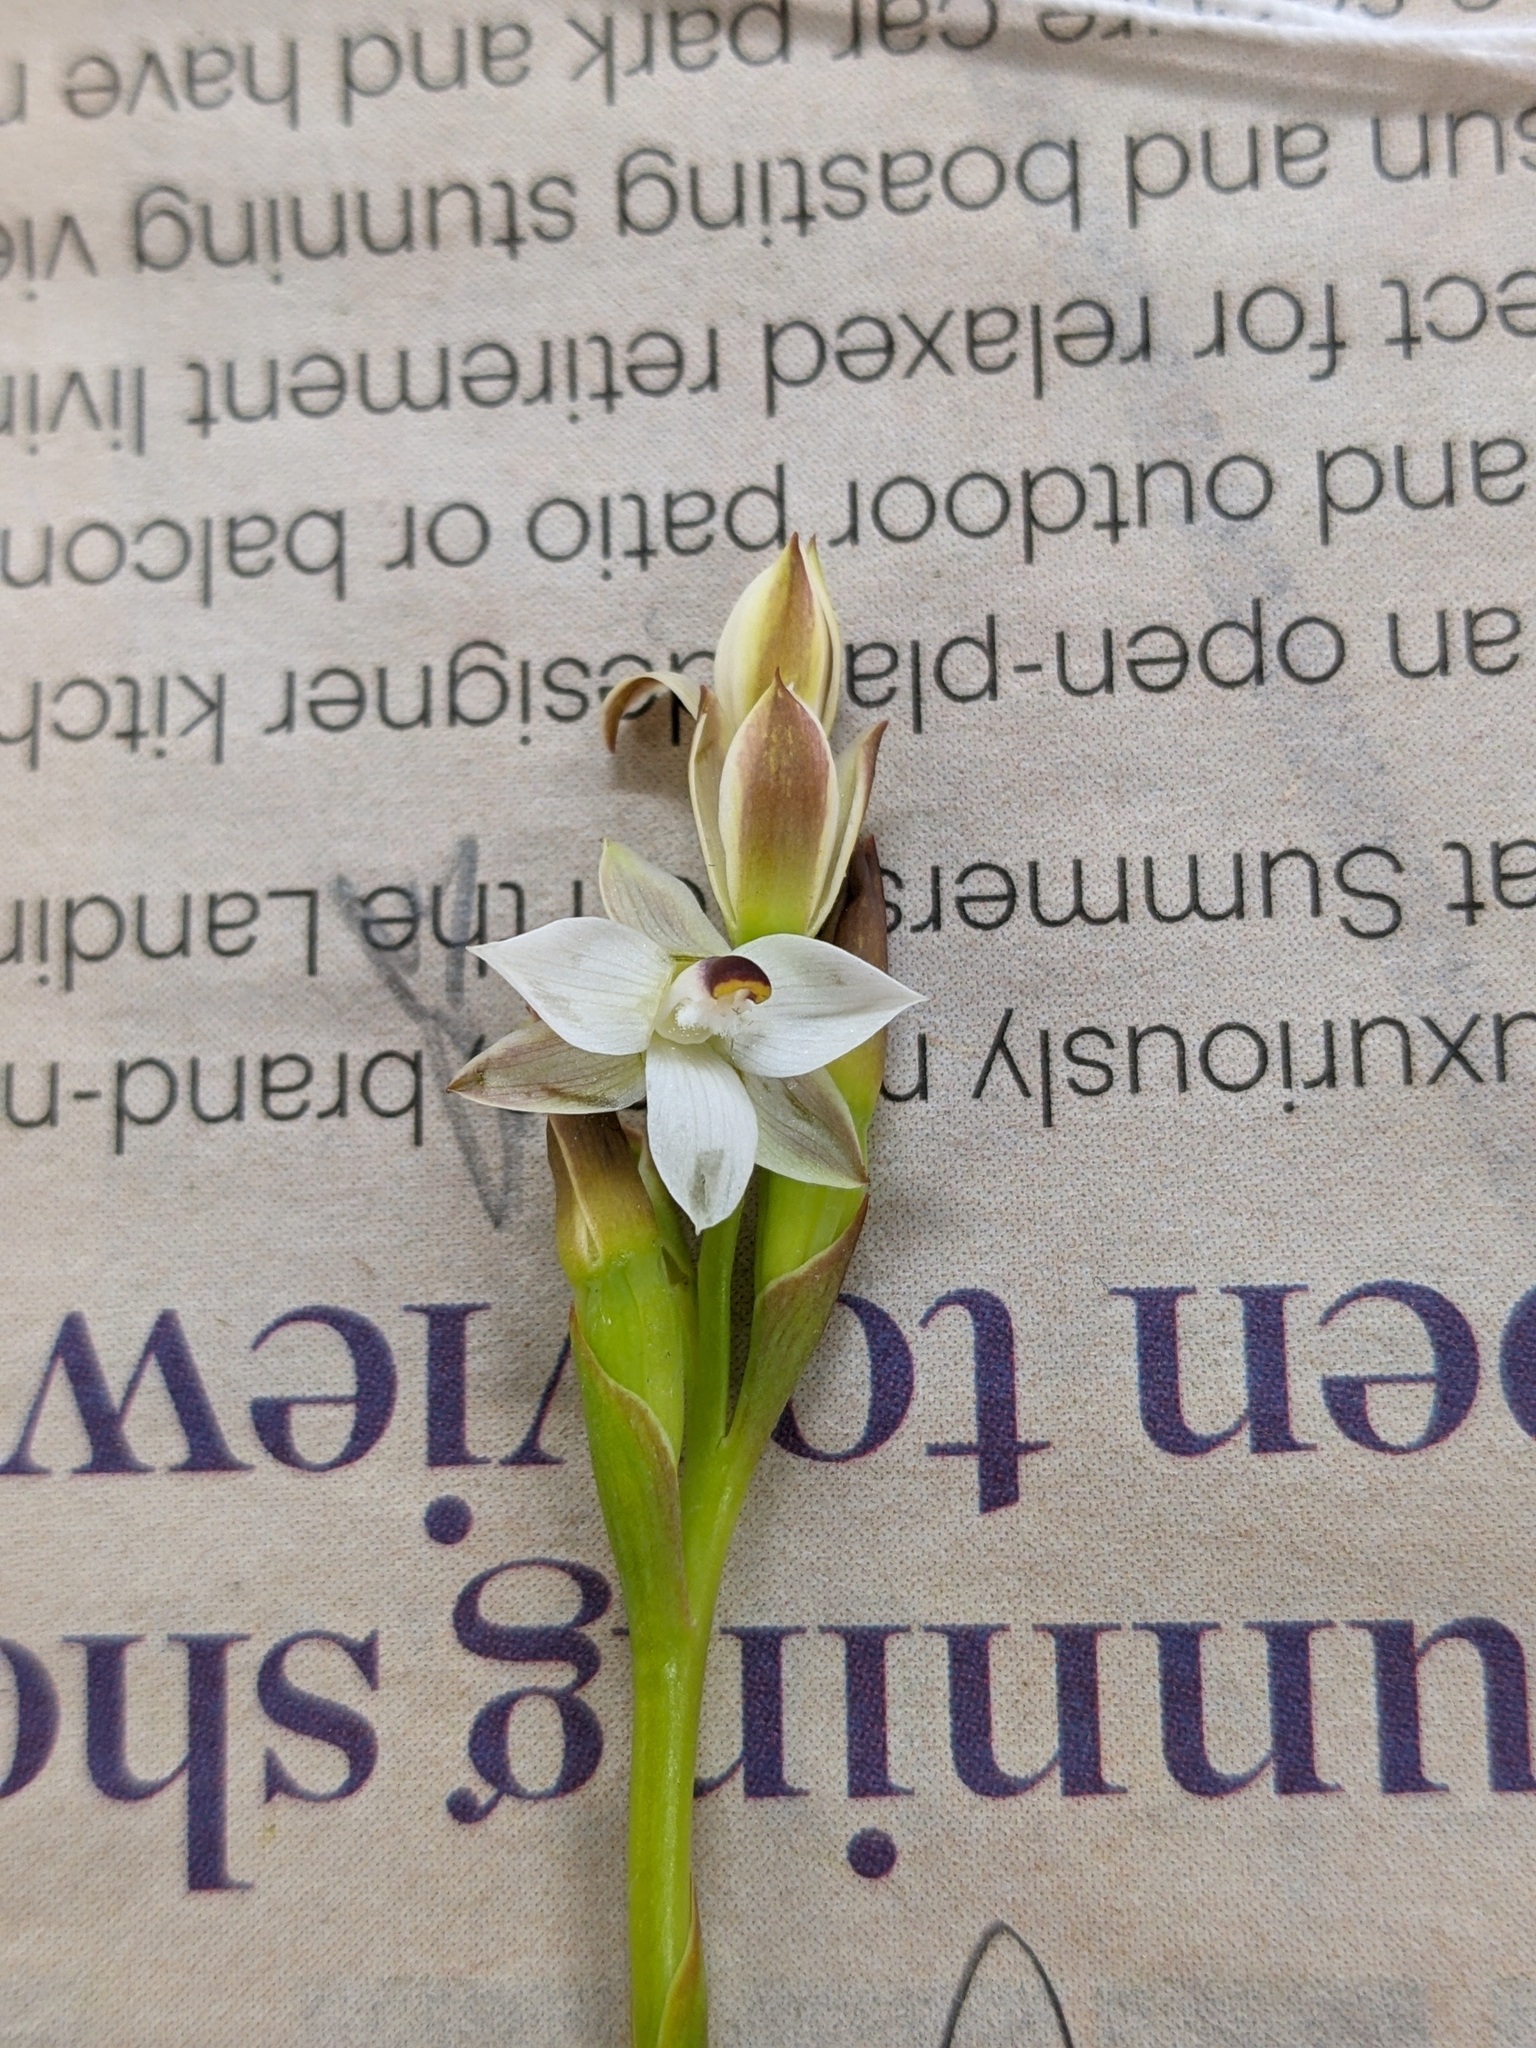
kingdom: Plantae
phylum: Tracheophyta
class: Liliopsida
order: Asparagales
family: Orchidaceae
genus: Thelymitra
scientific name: Thelymitra longifolia
